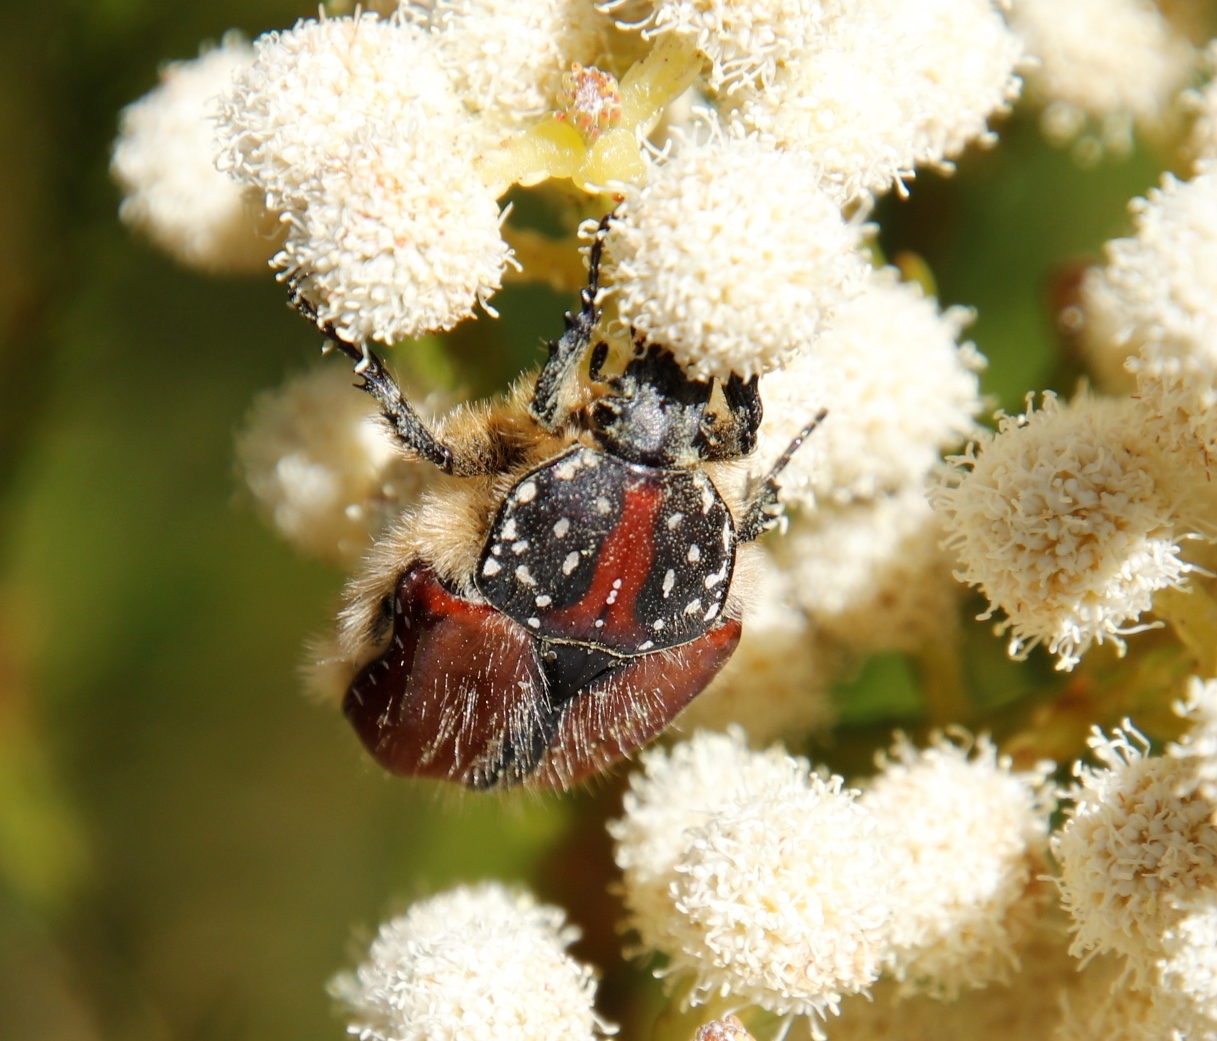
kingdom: Animalia
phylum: Arthropoda
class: Insecta
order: Coleoptera
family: Scarabaeidae
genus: Trichostetha
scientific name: Trichostetha capensis
